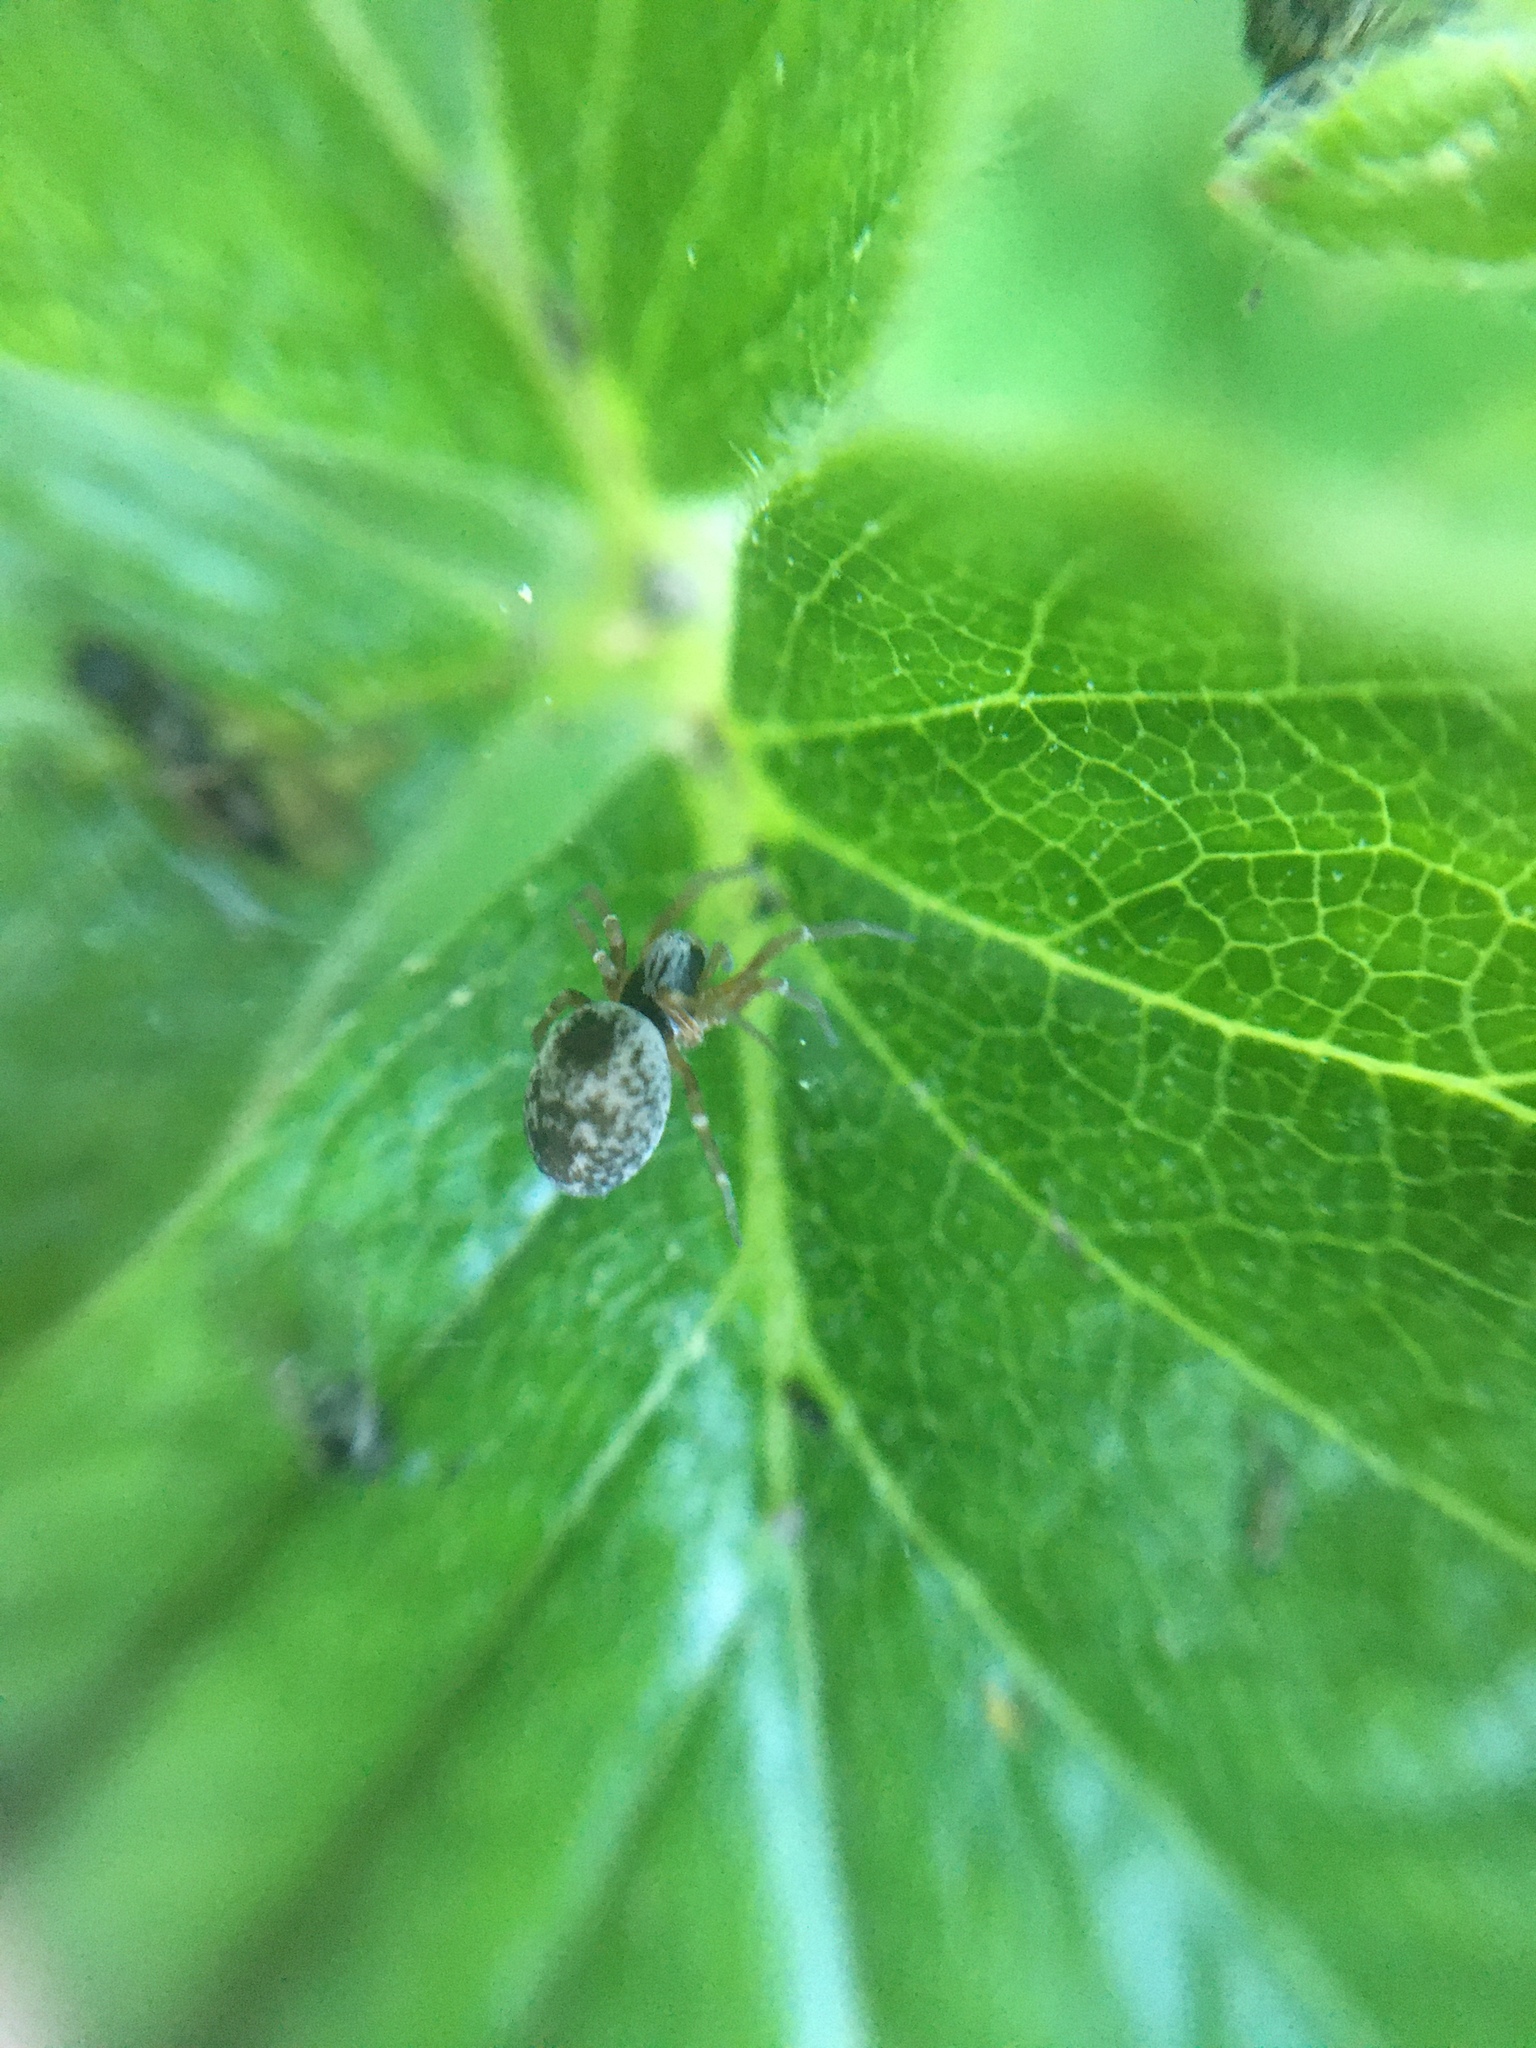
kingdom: Animalia
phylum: Arthropoda
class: Arachnida
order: Araneae
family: Dictynidae
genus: Dictyna
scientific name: Dictyna arundinacea
